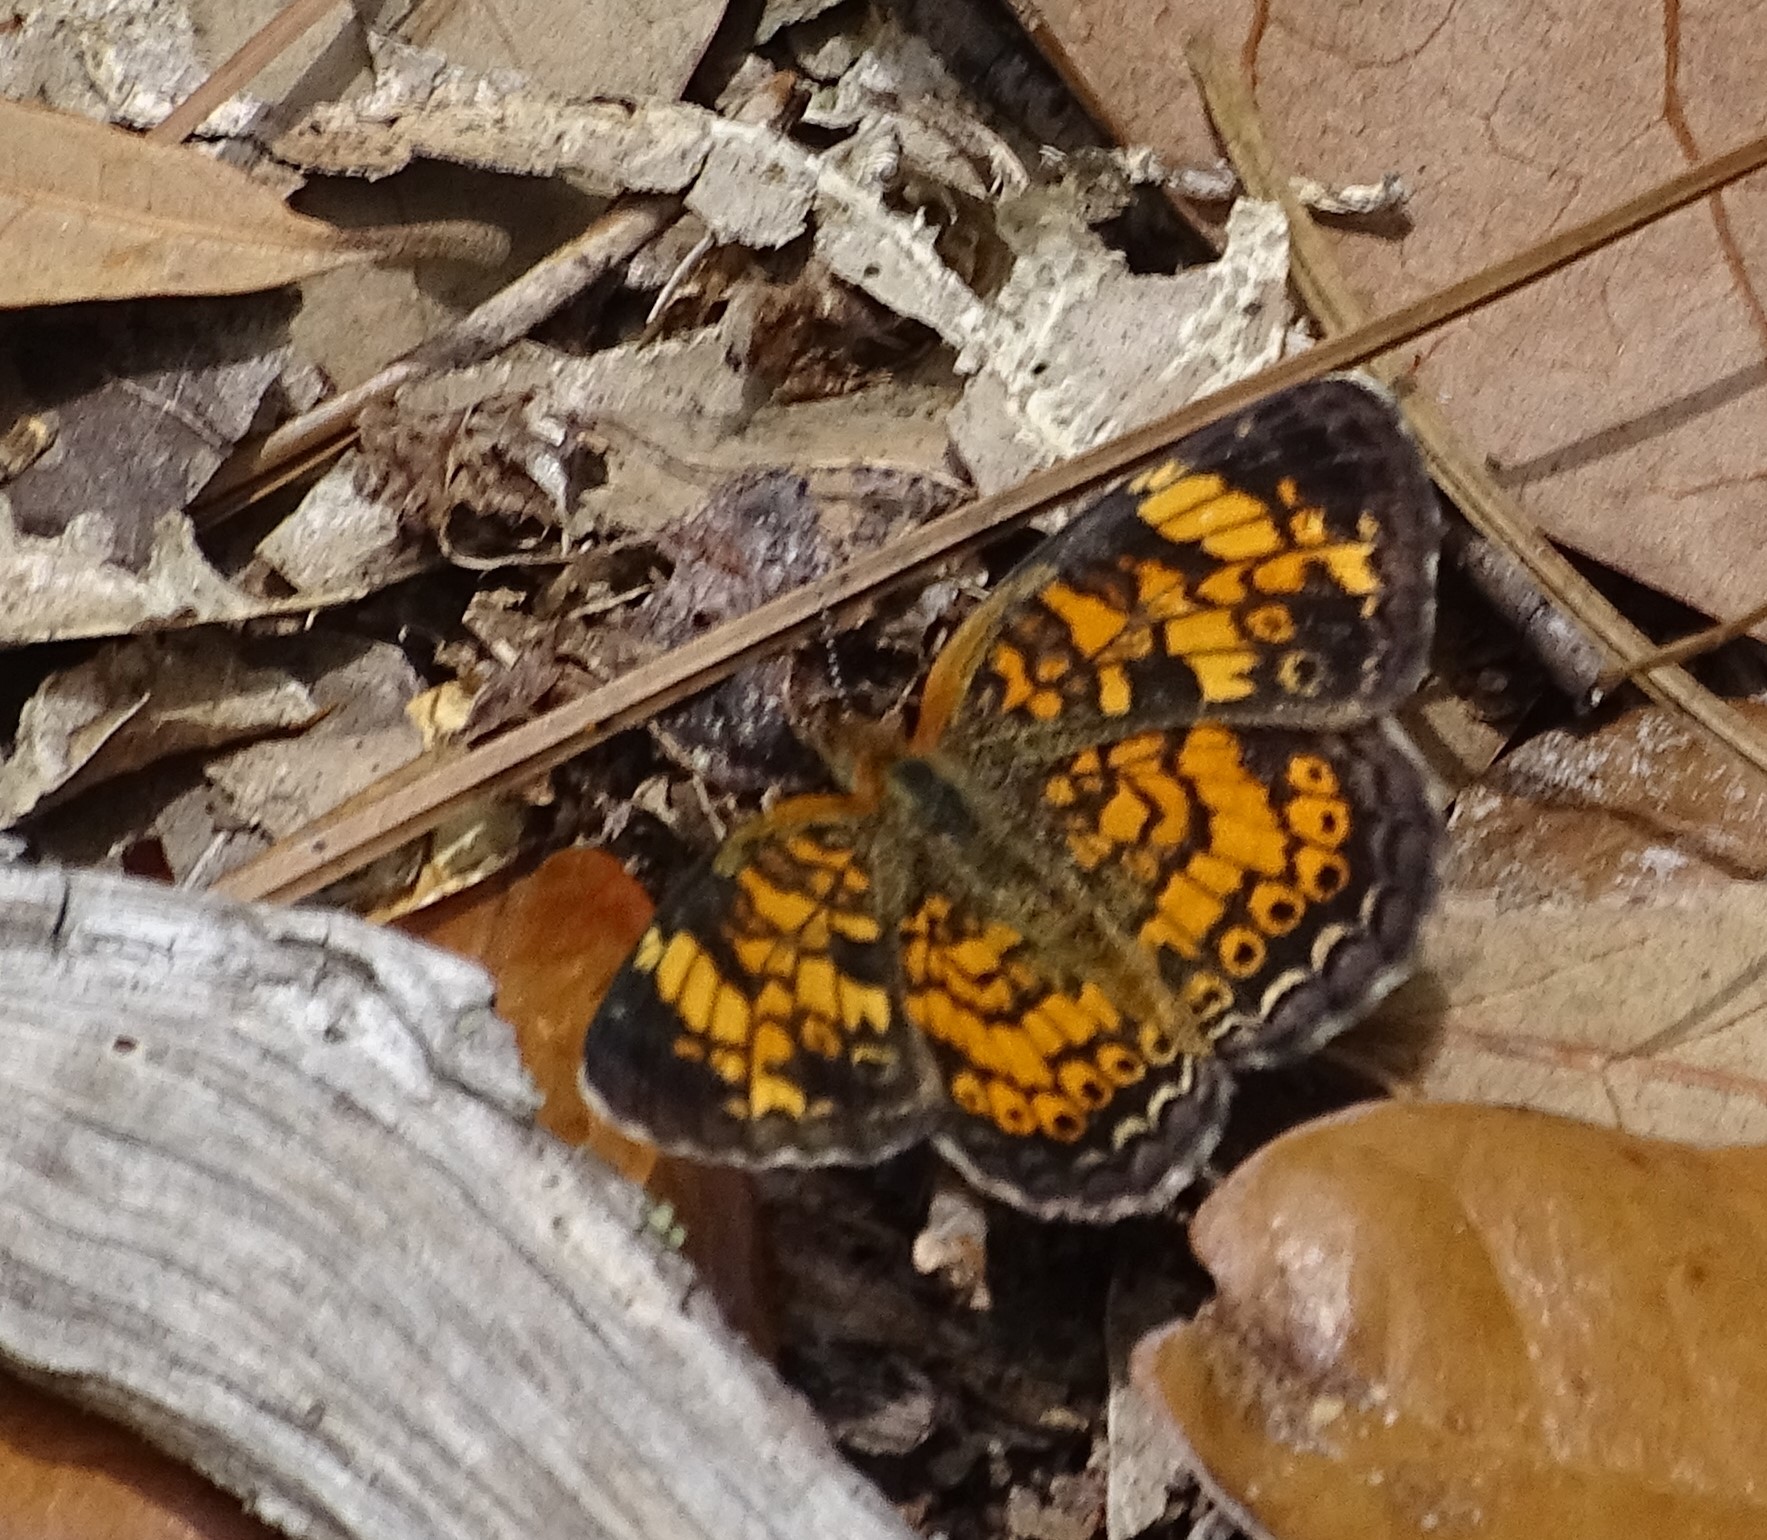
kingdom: Animalia
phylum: Arthropoda
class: Insecta
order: Lepidoptera
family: Nymphalidae
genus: Phyciodes
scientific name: Phyciodes tharos
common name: Pearl crescent
